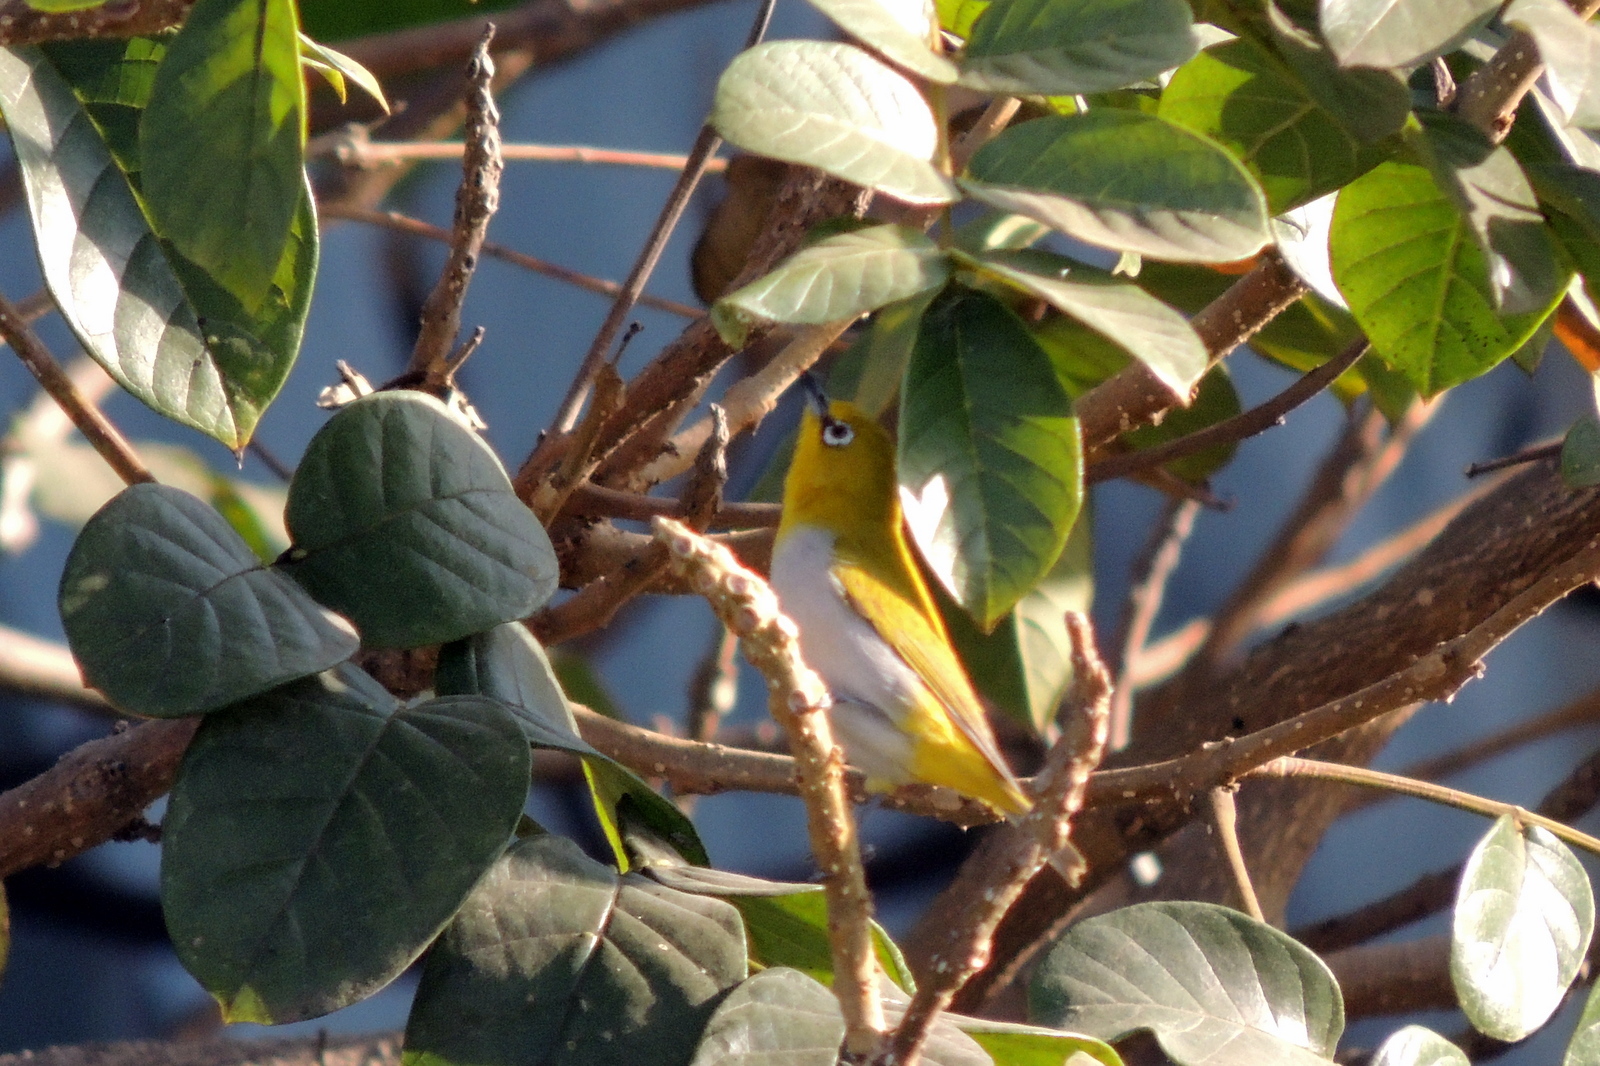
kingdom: Animalia
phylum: Chordata
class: Aves
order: Passeriformes
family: Zosteropidae
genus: Zosterops
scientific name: Zosterops palpebrosus
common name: Oriental white-eye
